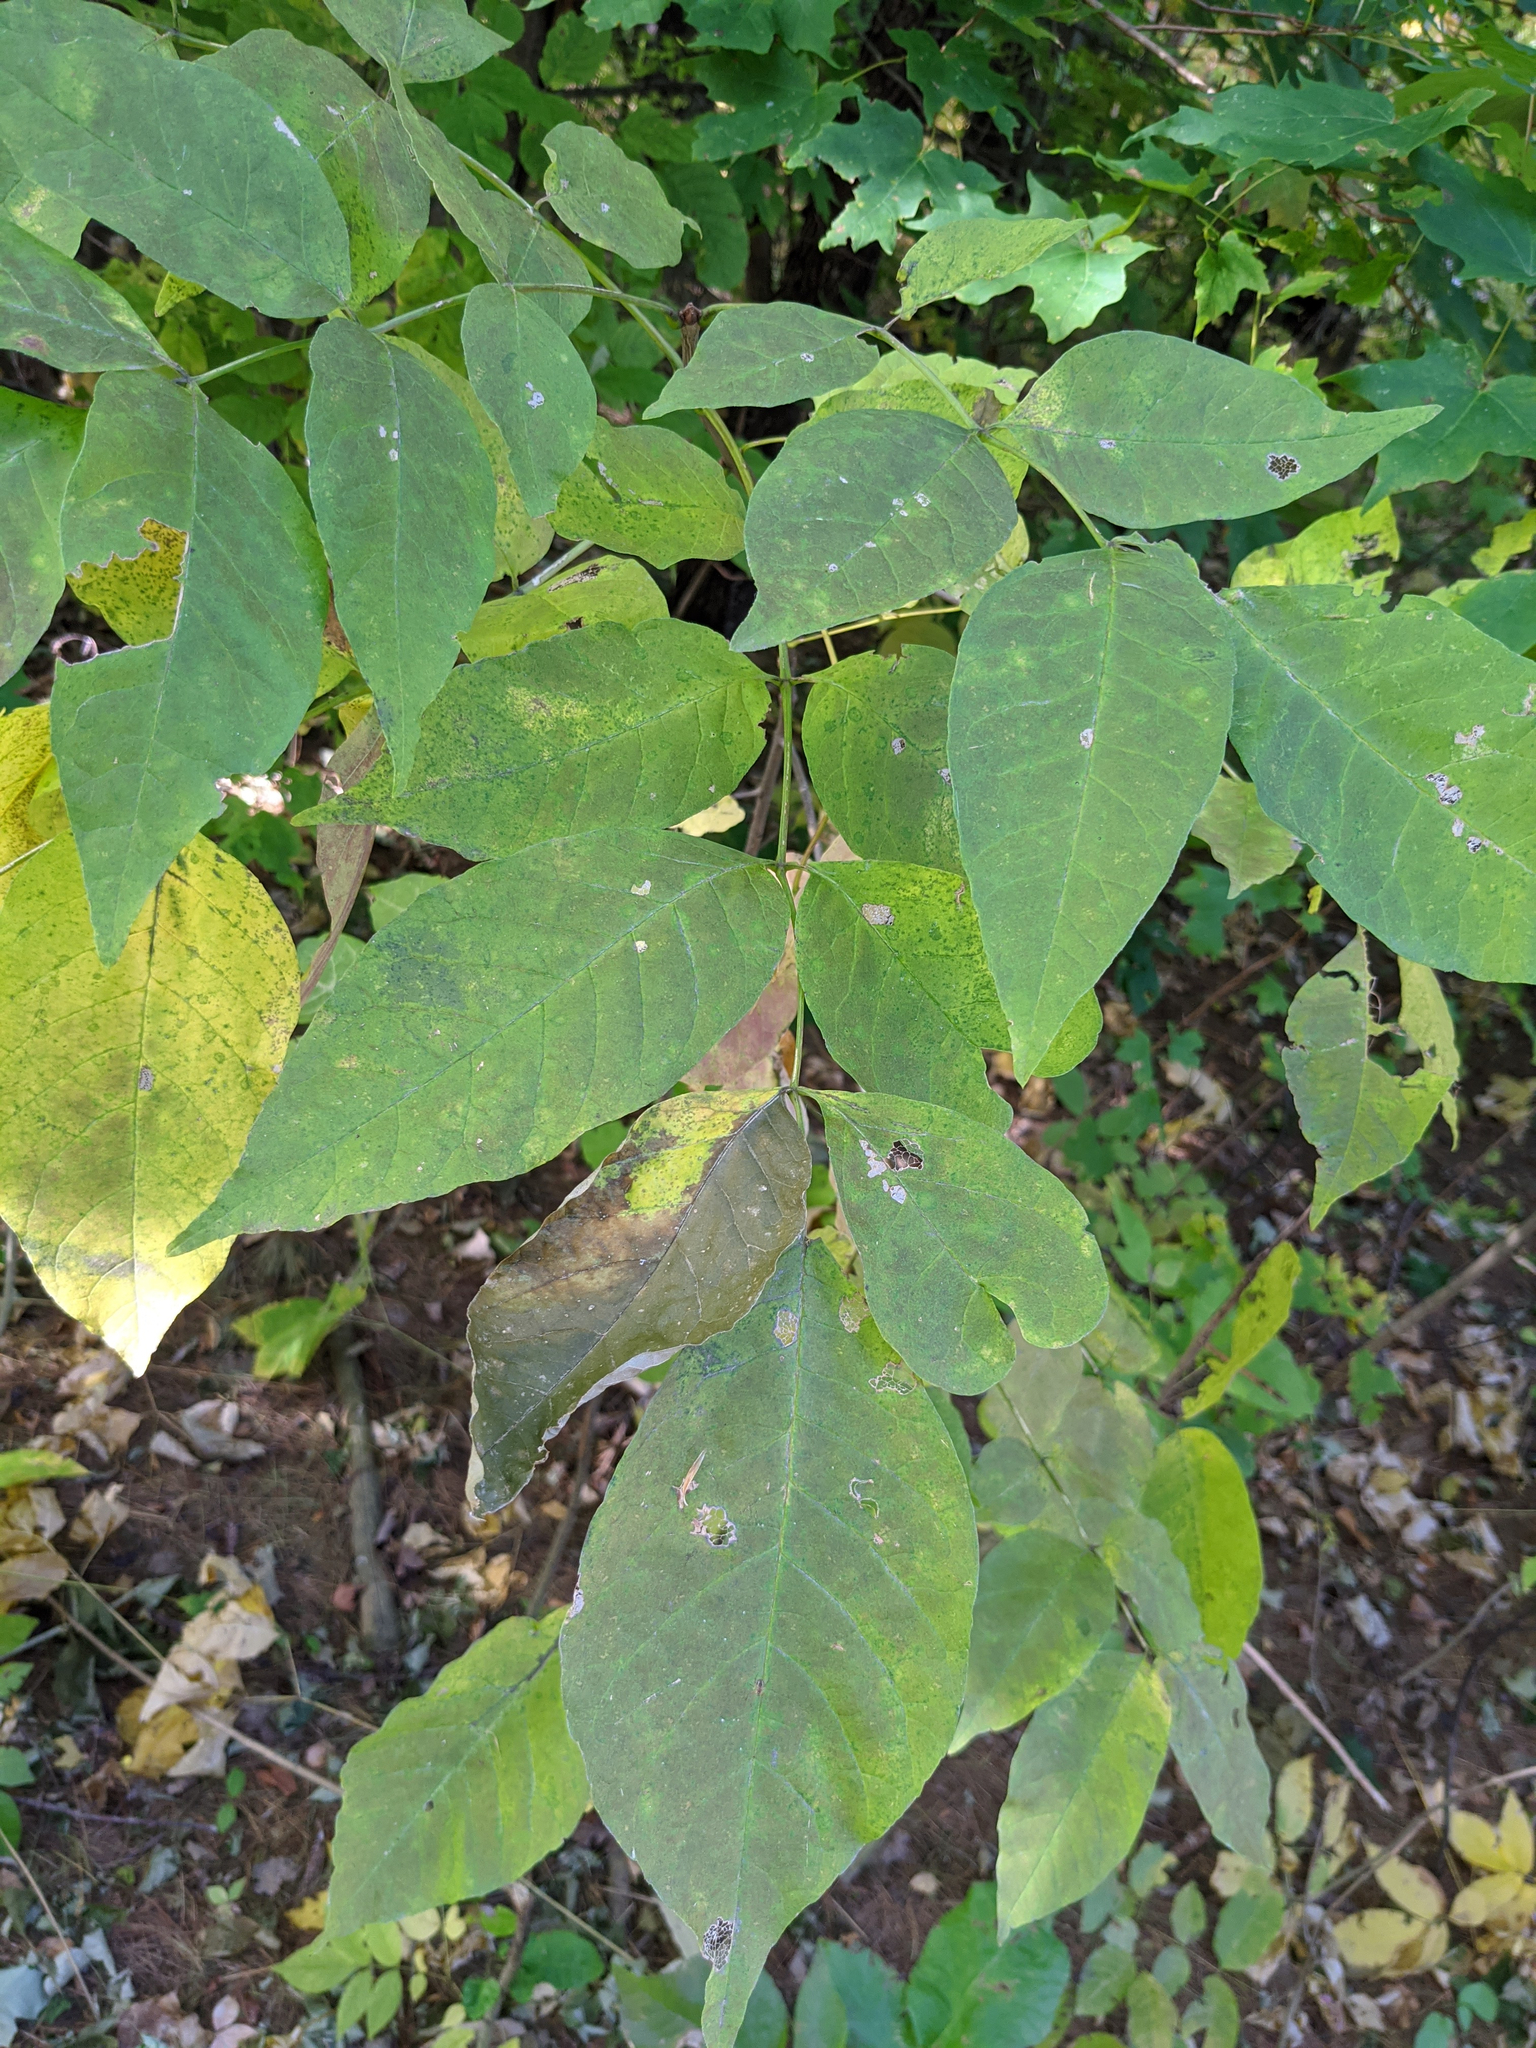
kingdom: Plantae
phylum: Tracheophyta
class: Magnoliopsida
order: Lamiales
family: Oleaceae
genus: Fraxinus
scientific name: Fraxinus americana
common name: White ash
